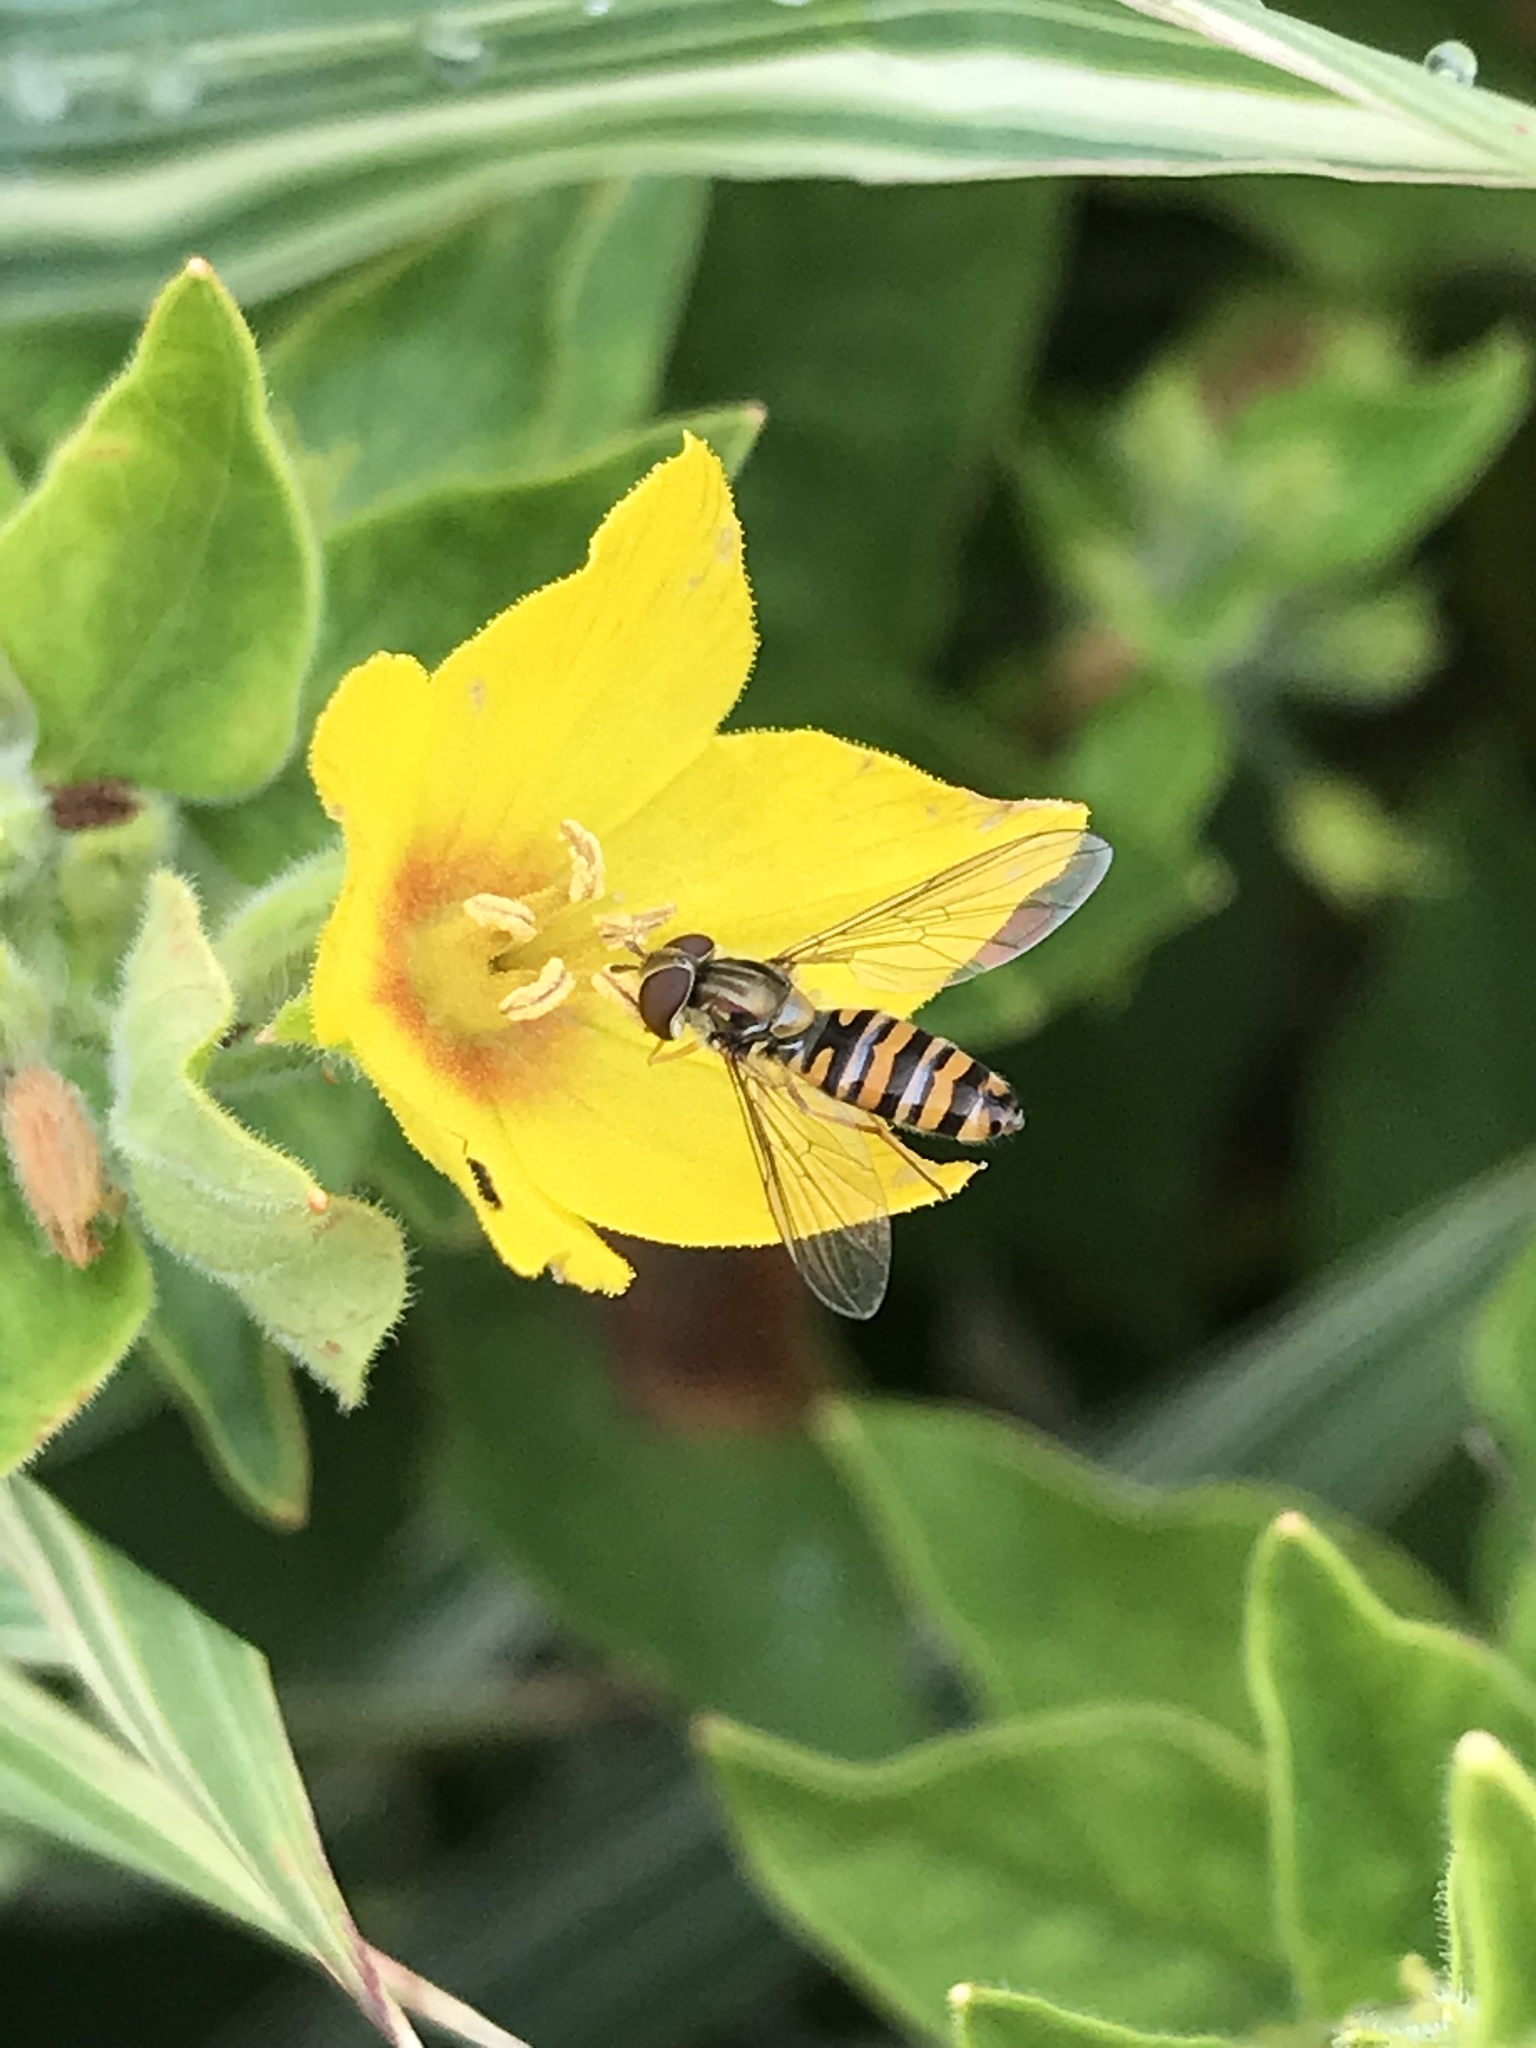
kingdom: Animalia
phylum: Arthropoda
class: Insecta
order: Diptera
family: Syrphidae
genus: Episyrphus
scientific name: Episyrphus balteatus
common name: Marmalade hoverfly
